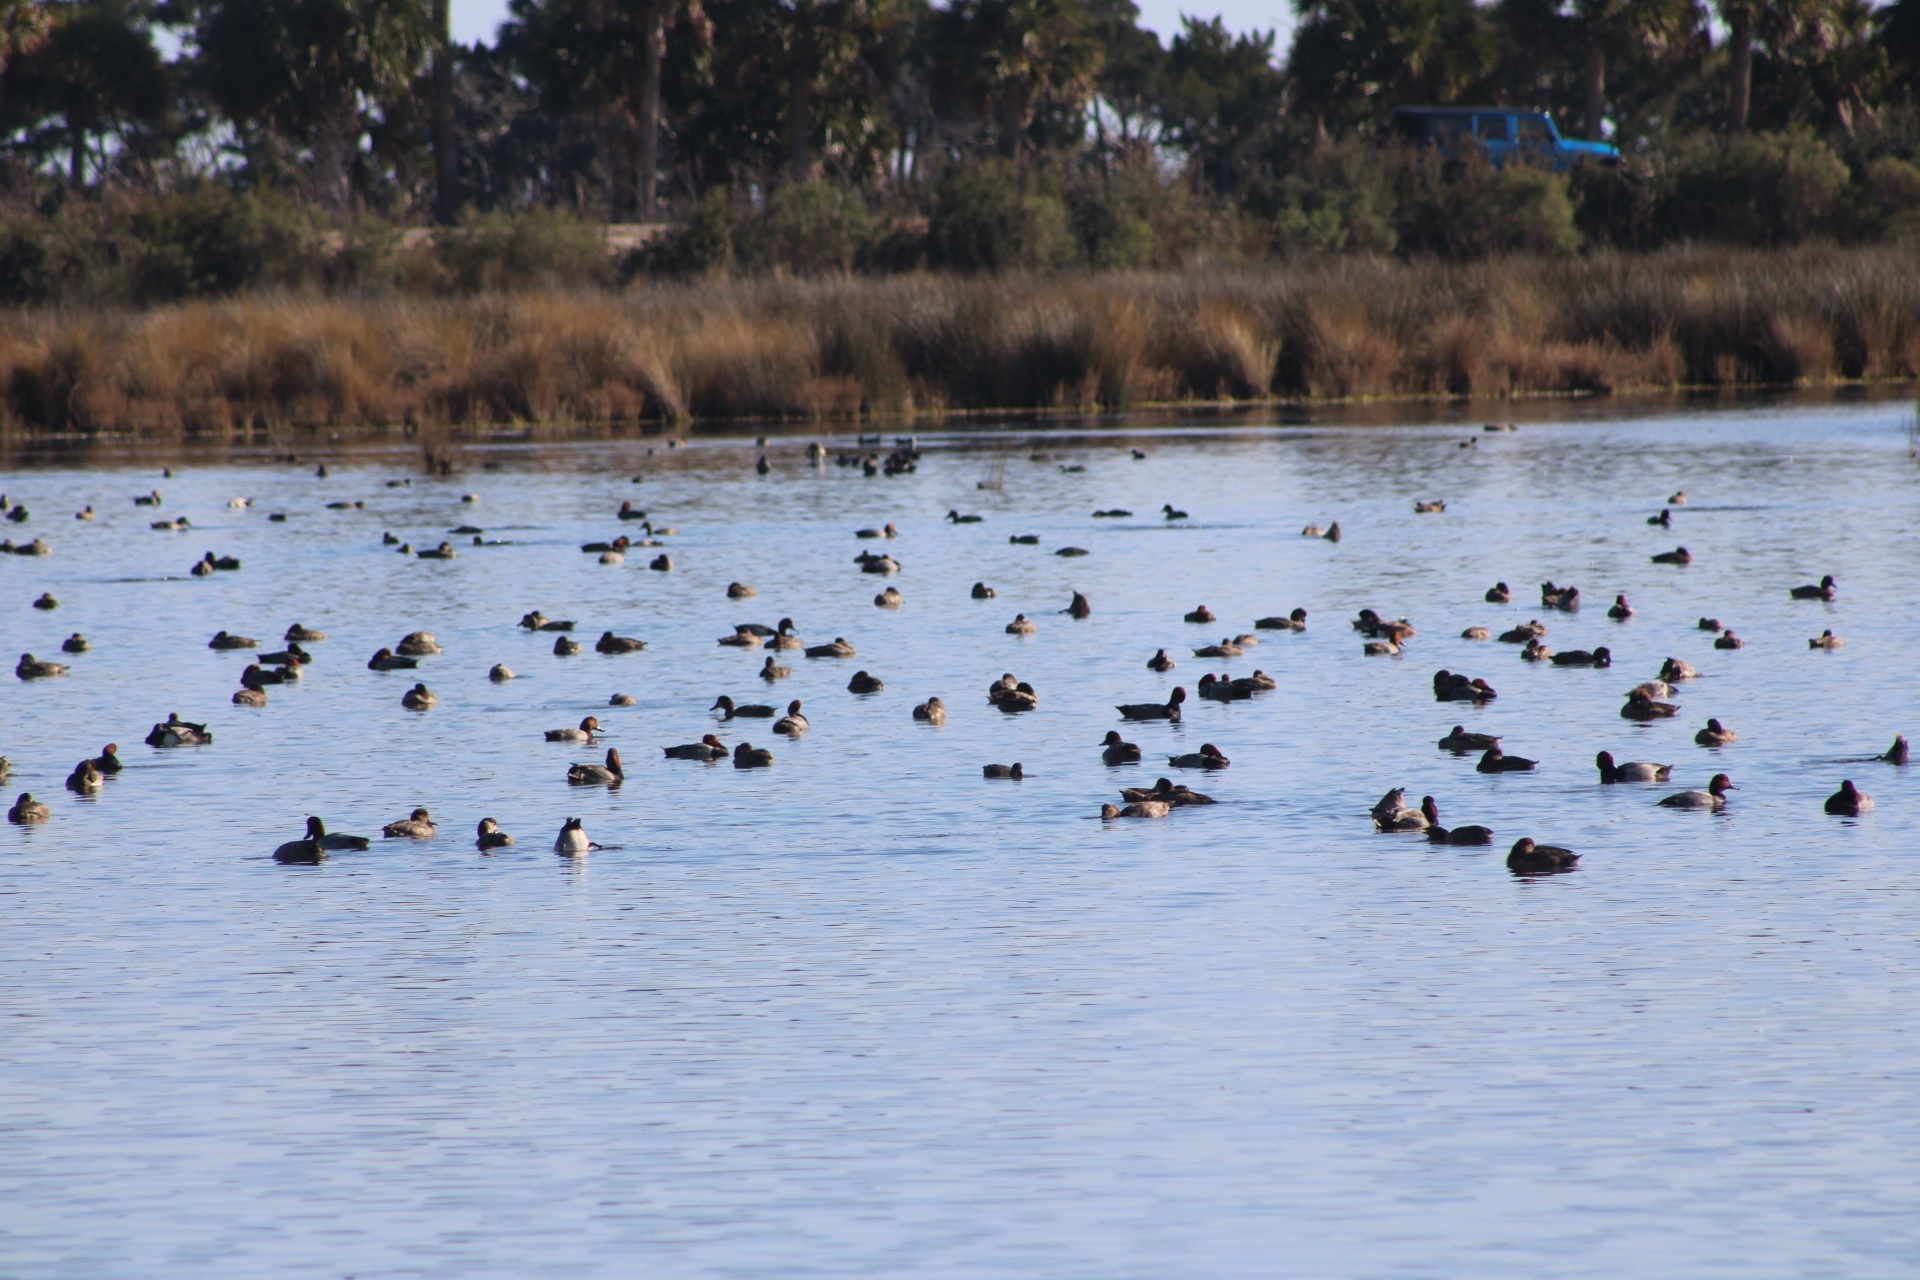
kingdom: Animalia
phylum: Chordata
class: Aves
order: Anseriformes
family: Anatidae
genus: Aythya
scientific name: Aythya americana
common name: Redhead
